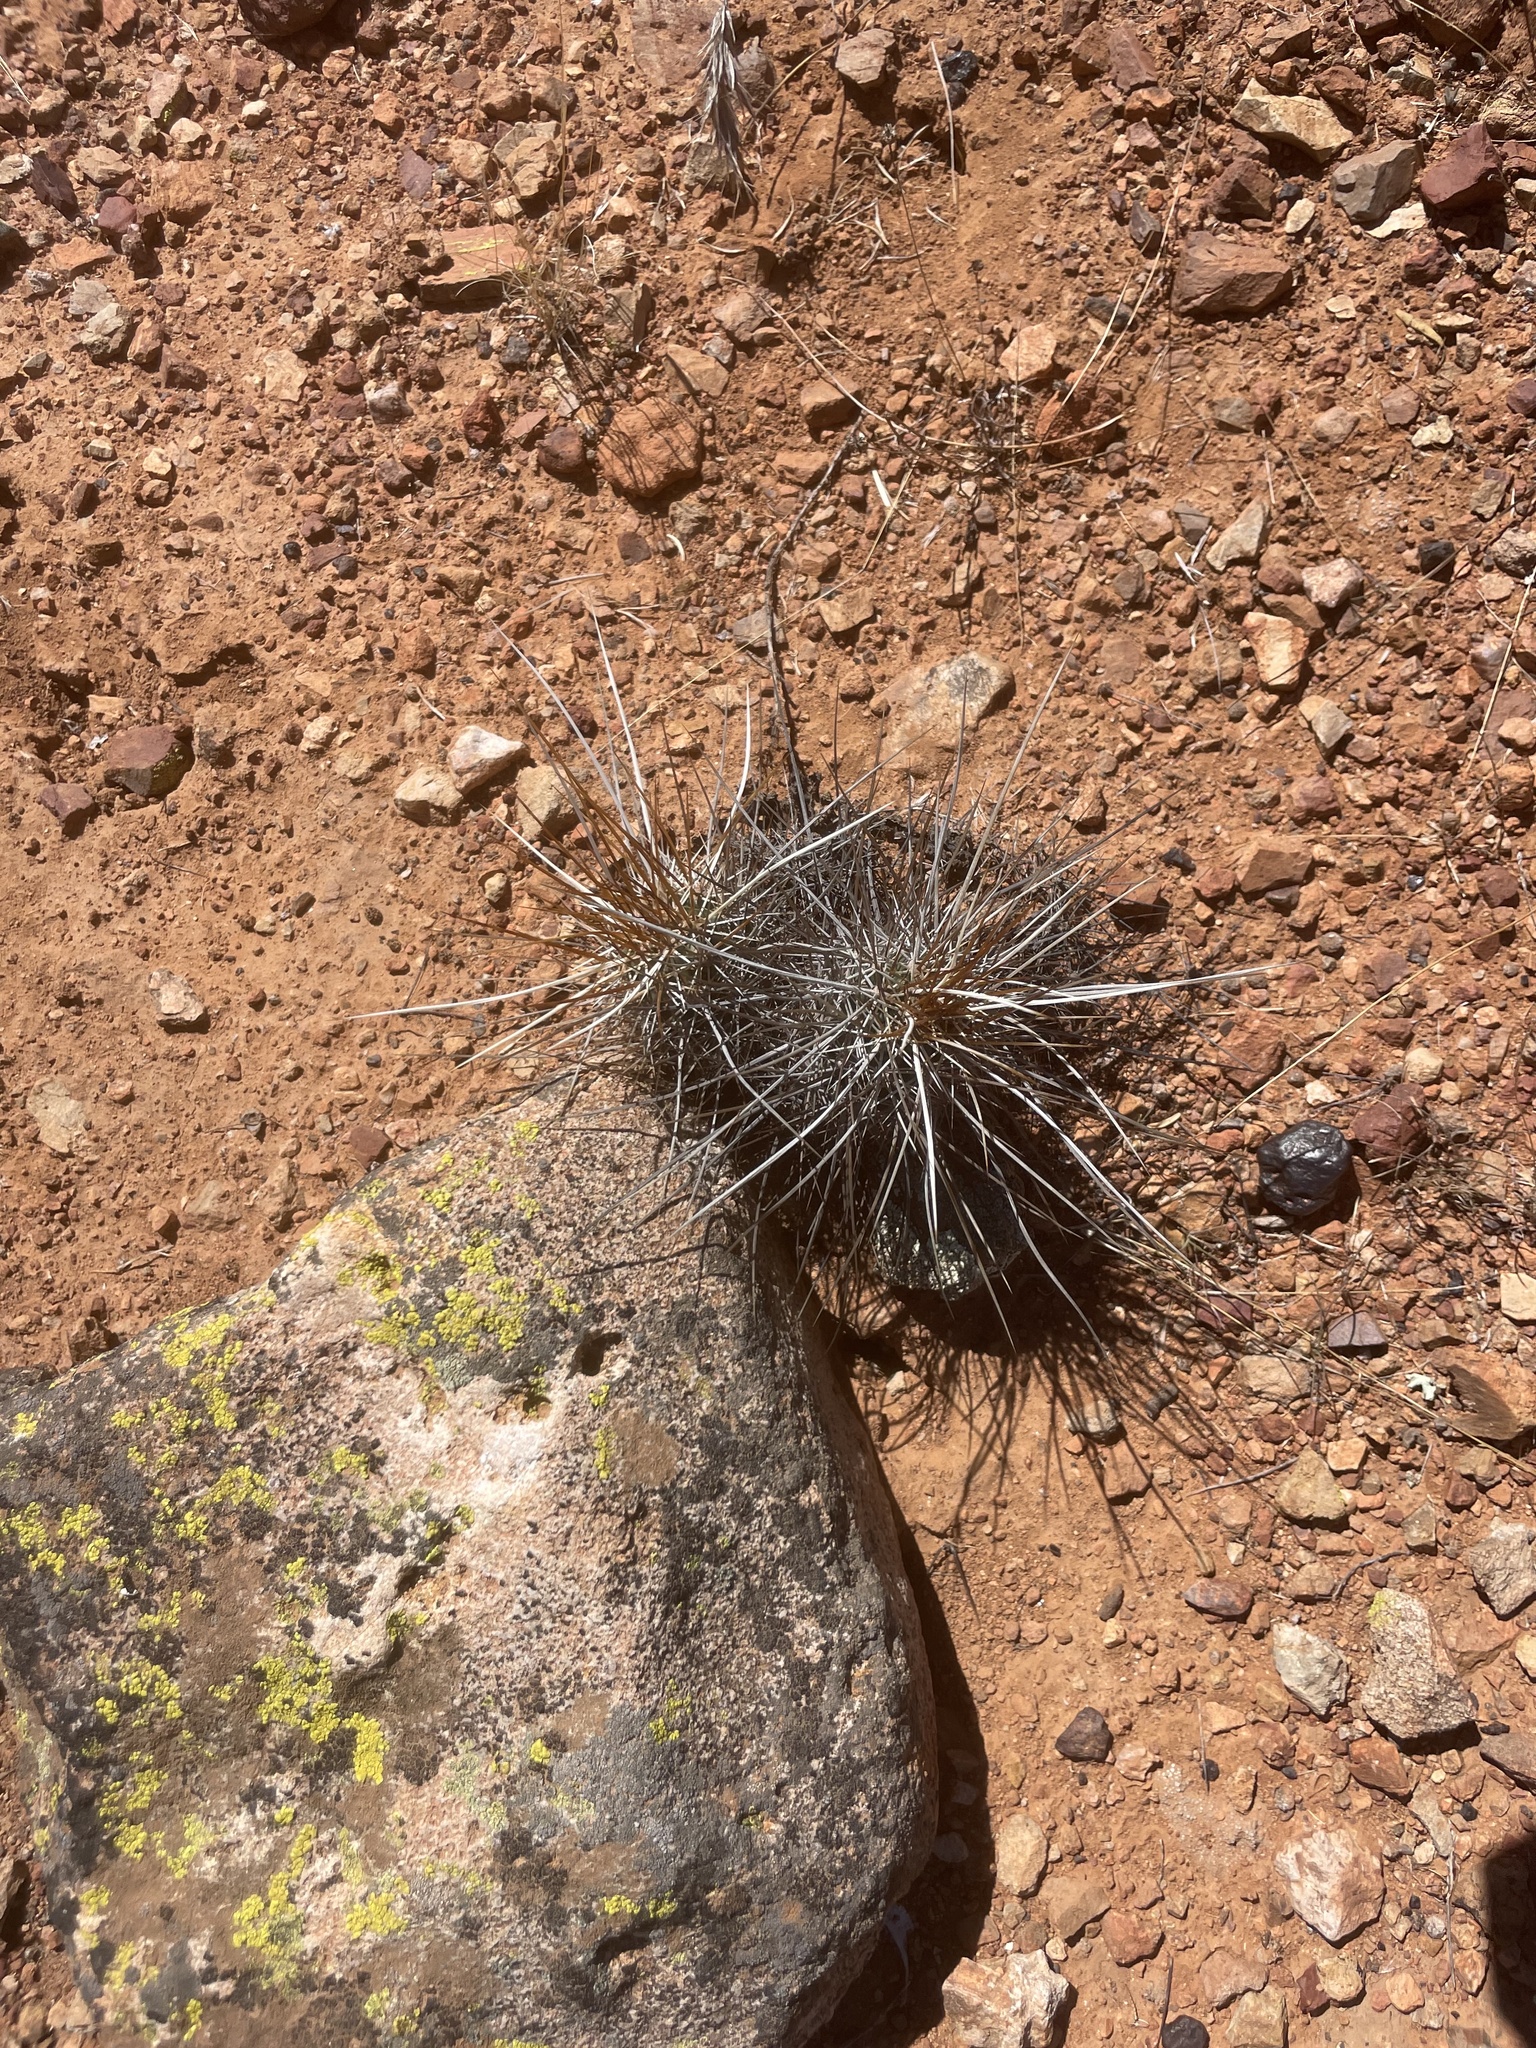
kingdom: Plantae
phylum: Tracheophyta
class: Magnoliopsida
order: Caryophyllales
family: Cactaceae
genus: Echinocereus
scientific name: Echinocereus engelmannii
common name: Engelmann's hedgehog cactus
